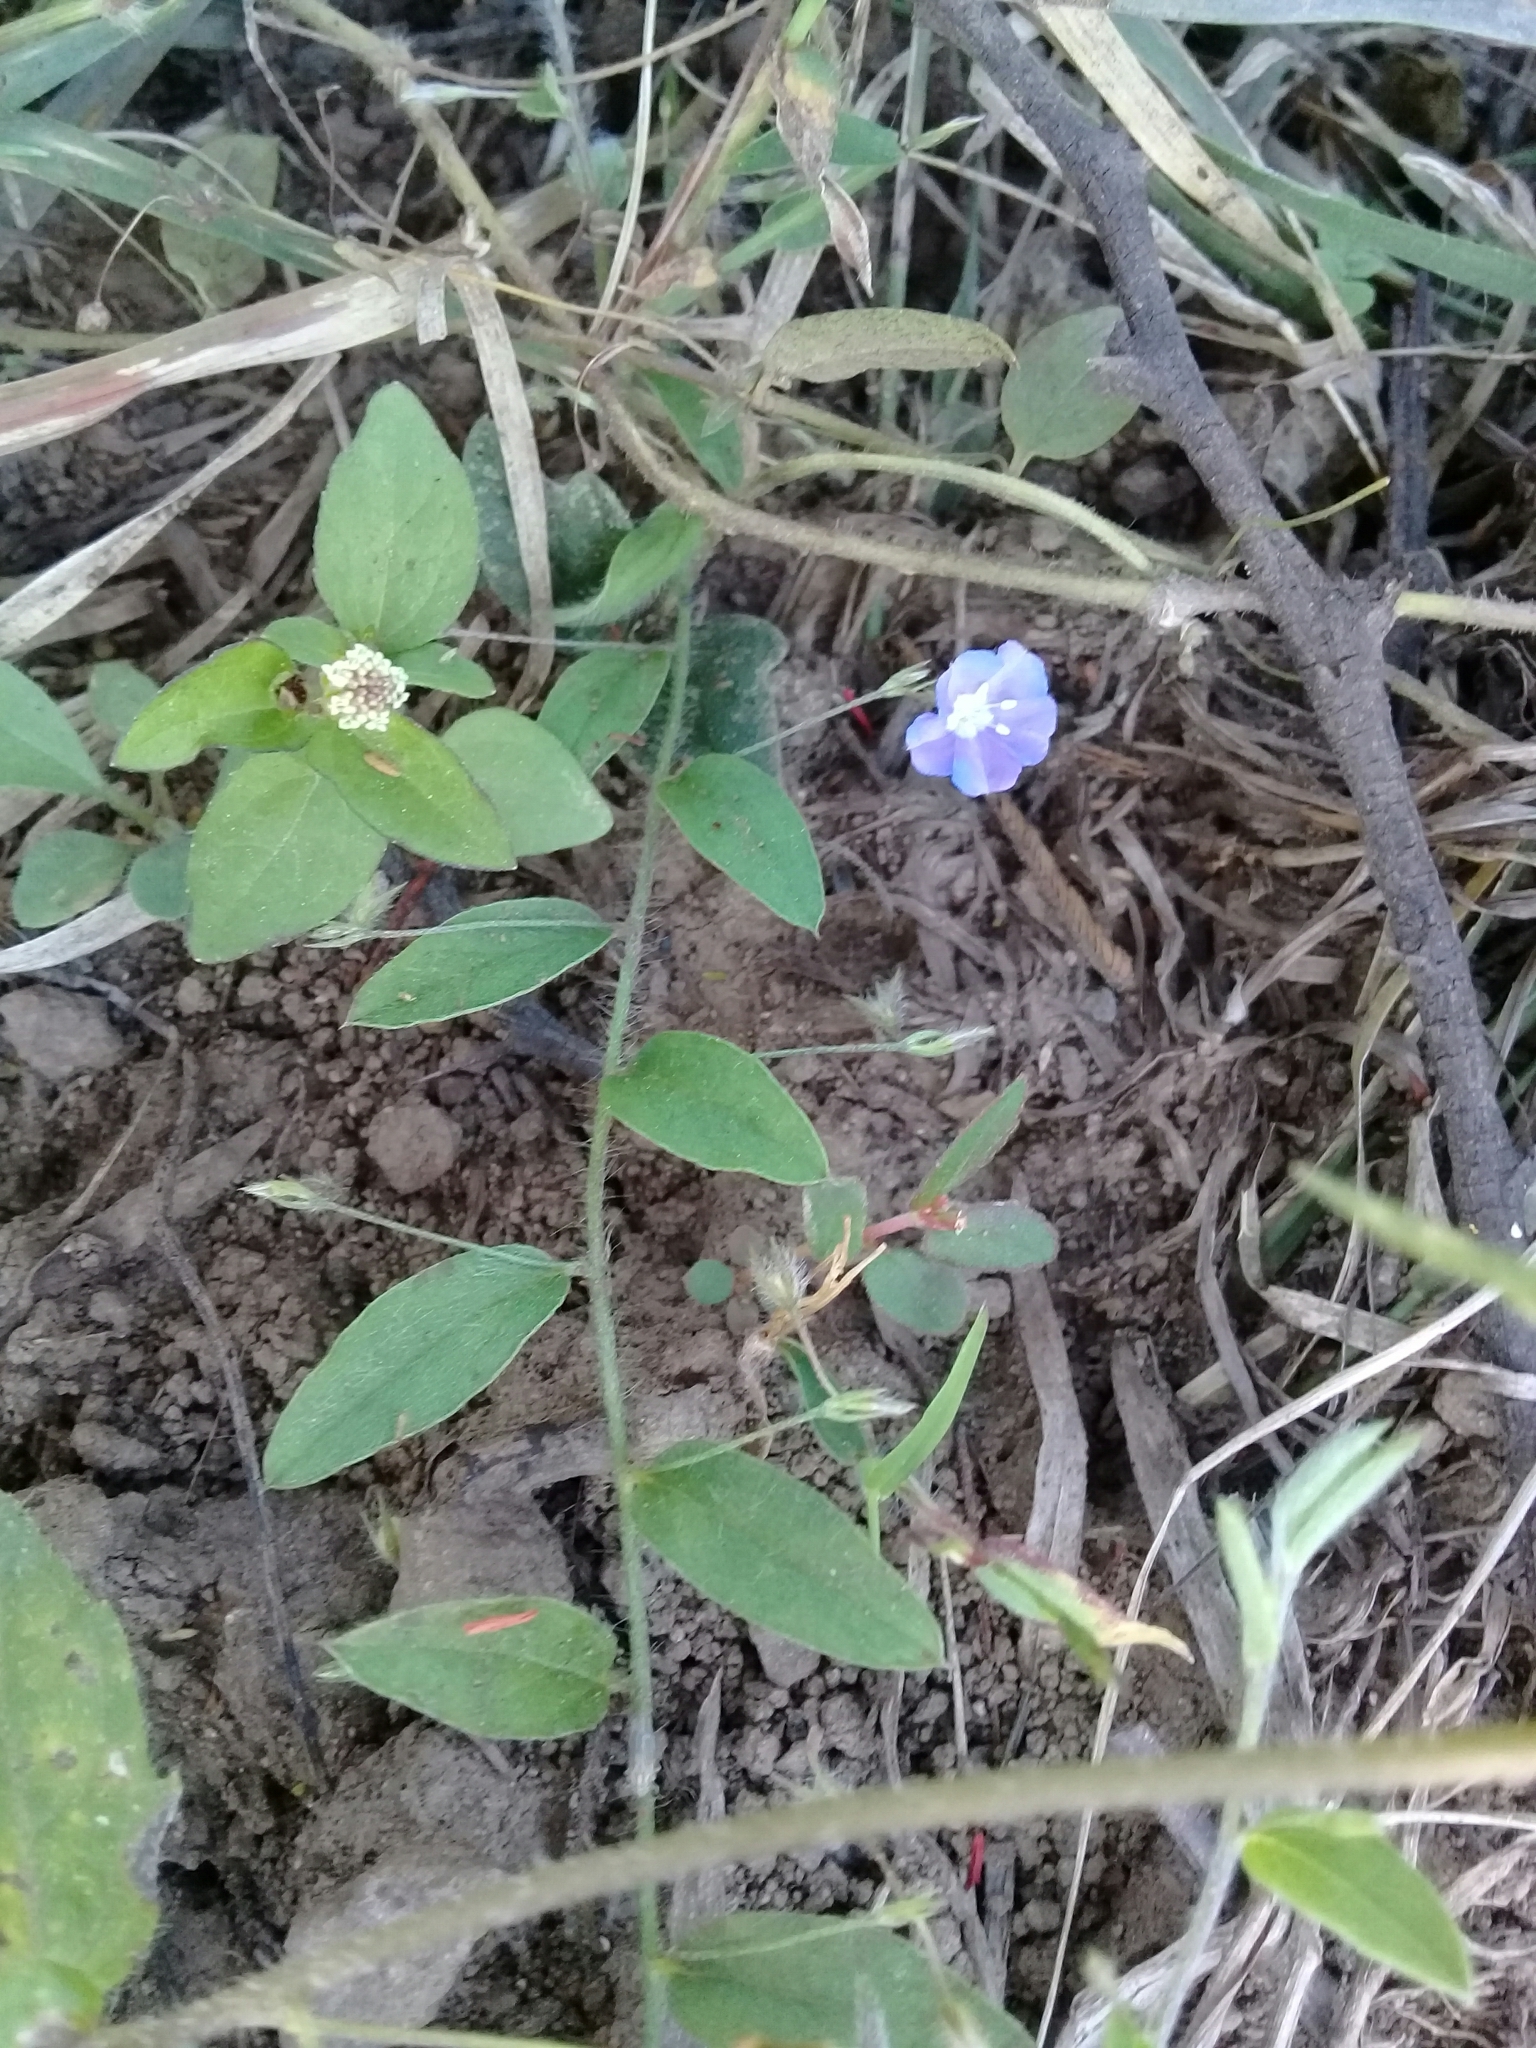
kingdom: Plantae
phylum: Tracheophyta
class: Magnoliopsida
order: Solanales
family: Convolvulaceae
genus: Evolvulus
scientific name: Evolvulus alsinoides
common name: Slender dwarf morning-glory
